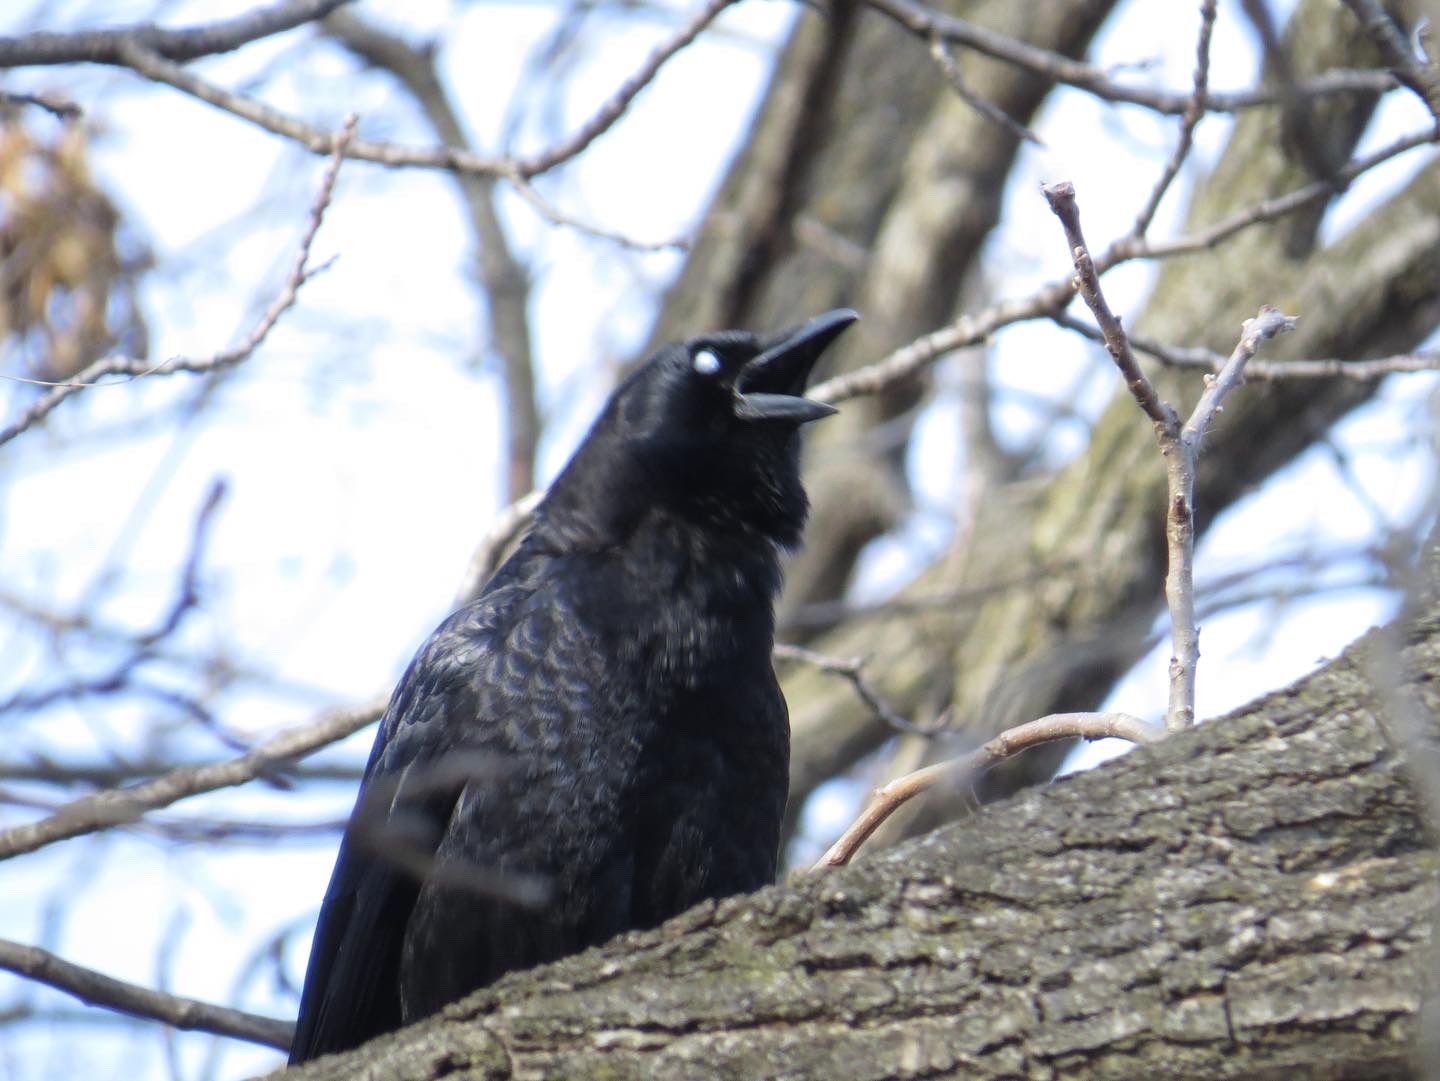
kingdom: Animalia
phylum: Chordata
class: Aves
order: Passeriformes
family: Corvidae
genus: Corvus
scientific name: Corvus brachyrhynchos
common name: American crow
